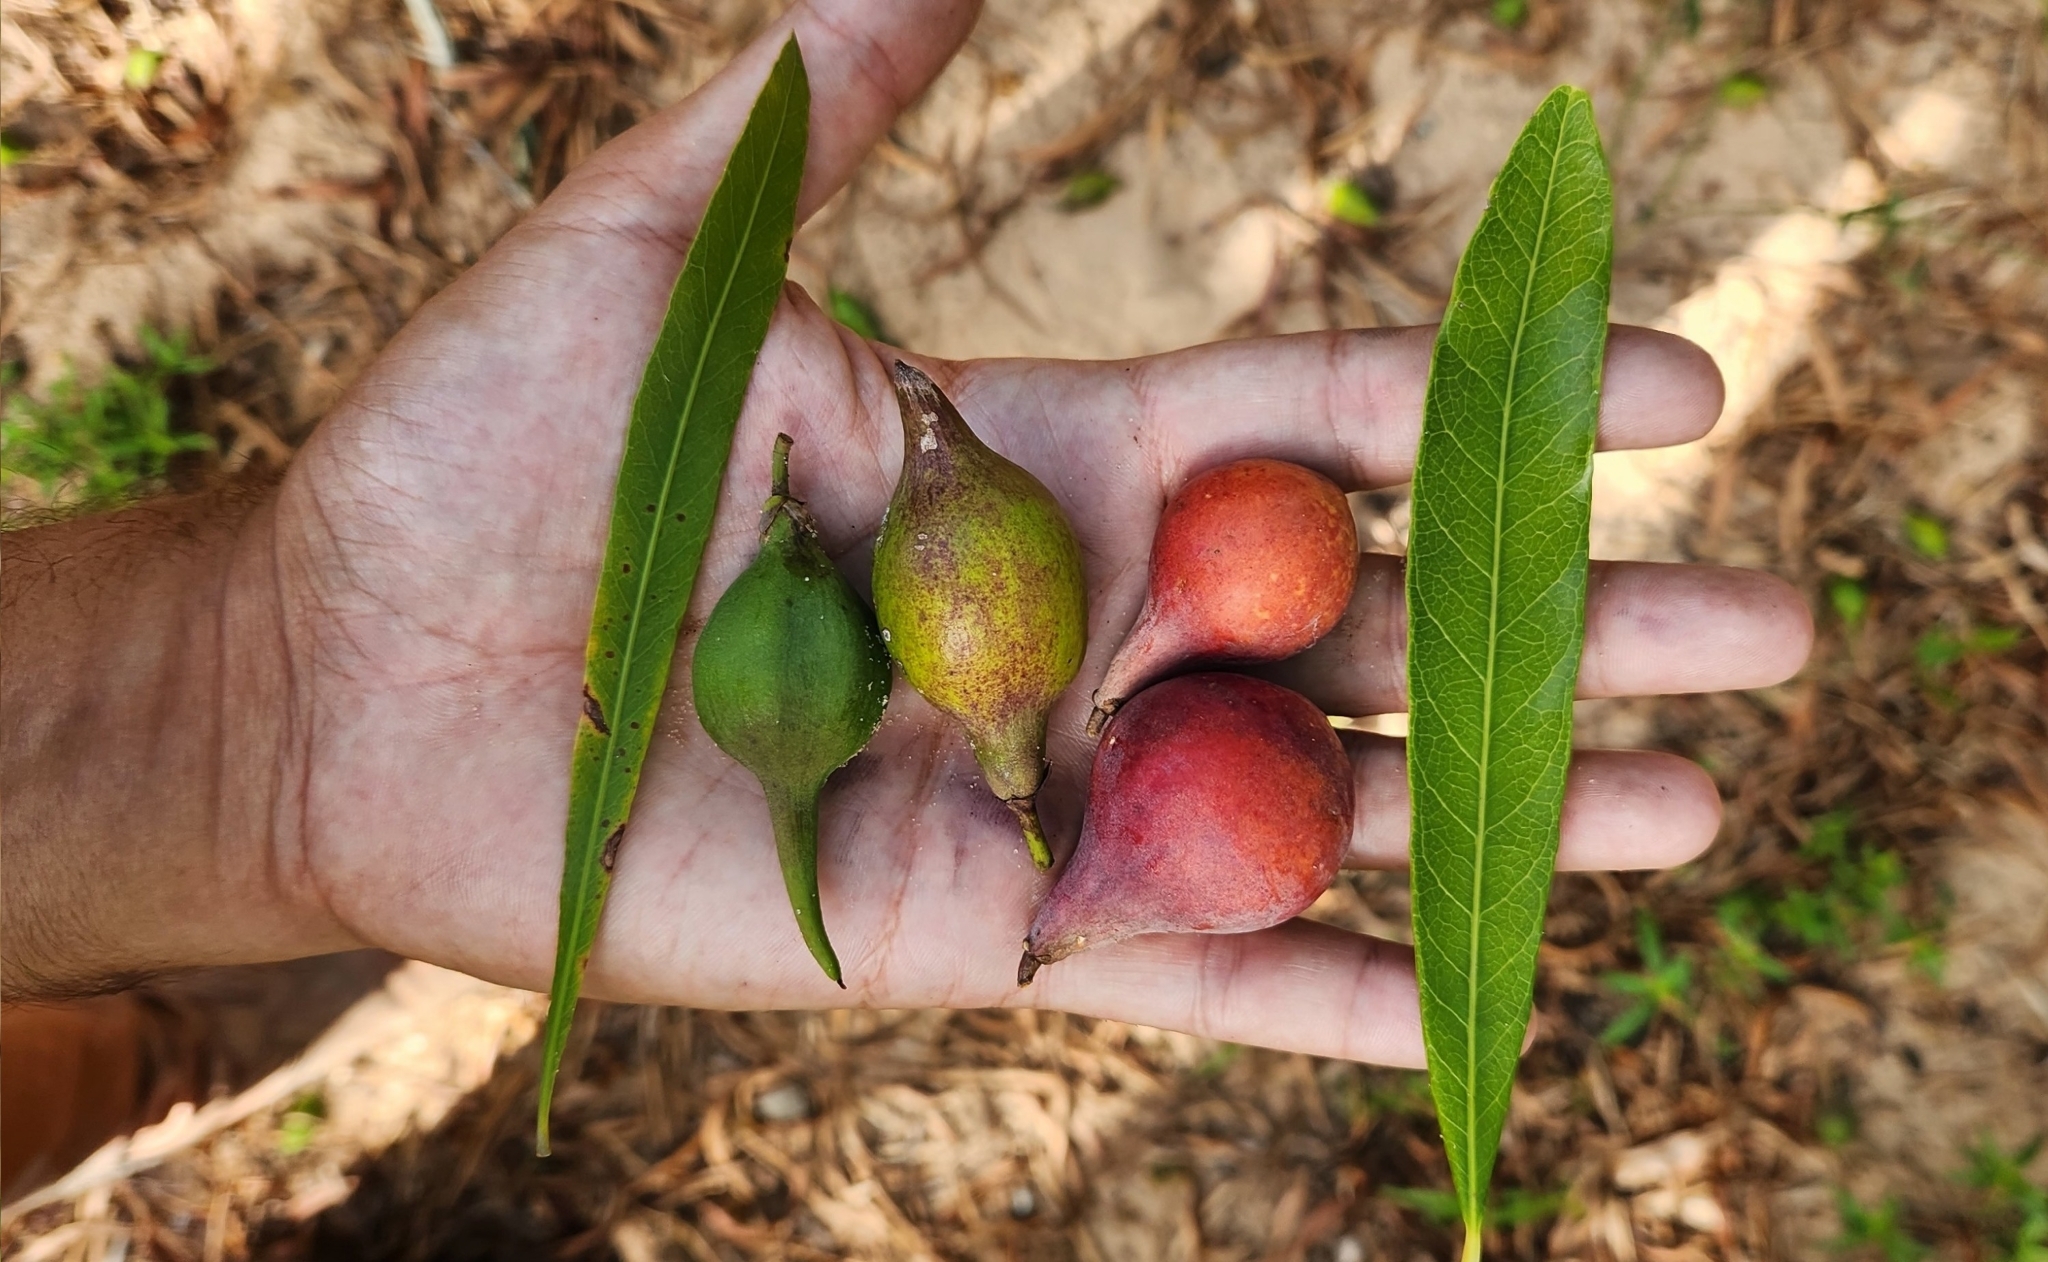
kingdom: Plantae
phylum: Tracheophyta
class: Magnoliopsida
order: Ericales
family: Sapotaceae
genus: Pouteria
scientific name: Pouteria gardneriana
